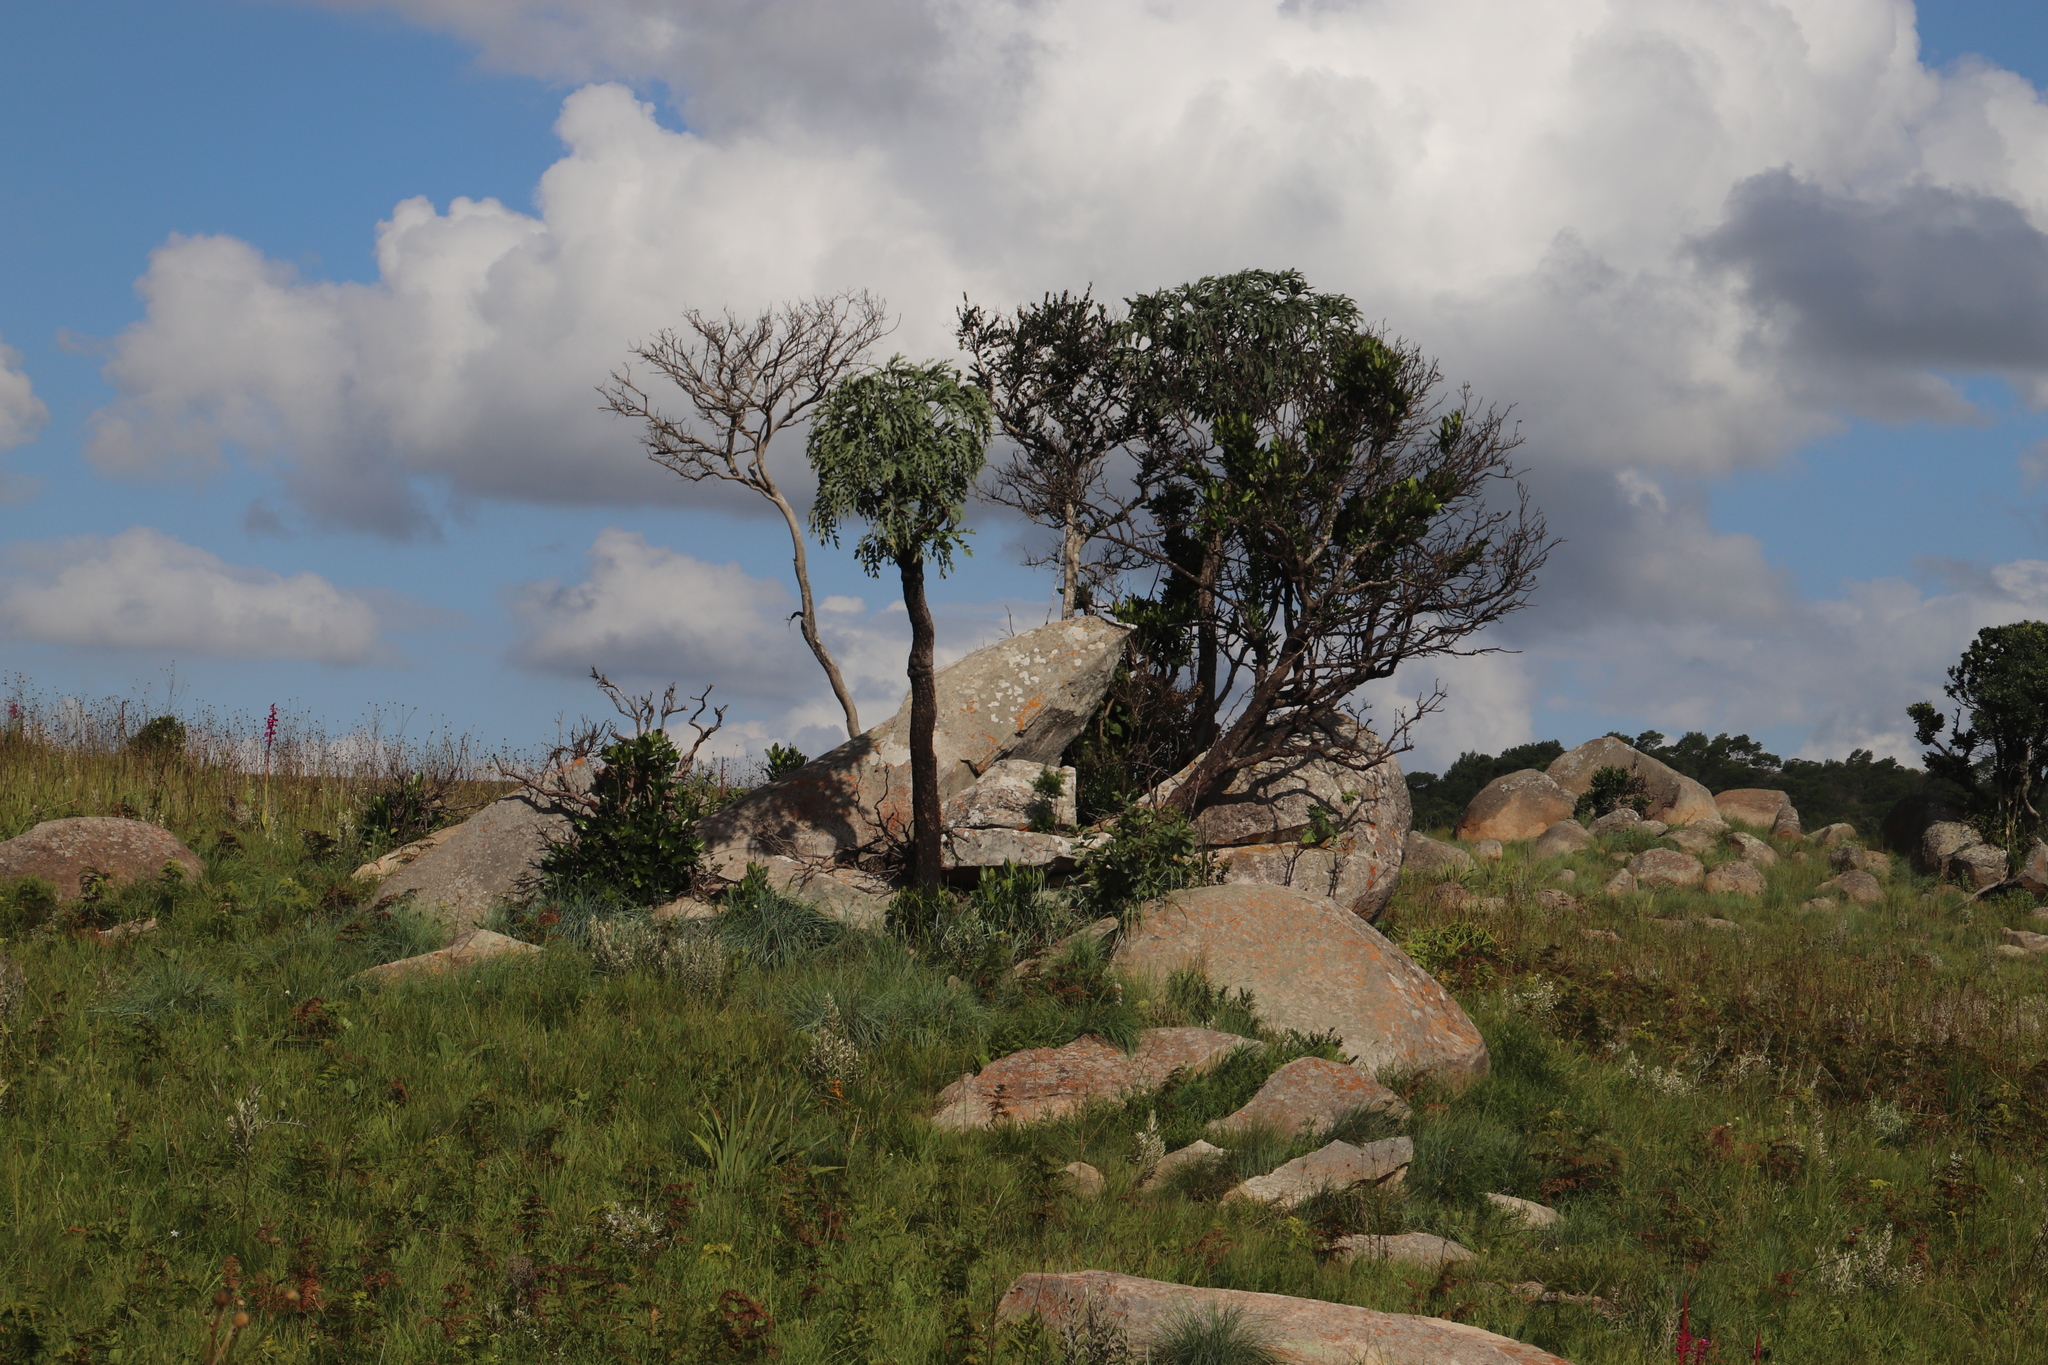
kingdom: Plantae
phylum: Tracheophyta
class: Magnoliopsida
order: Apiales
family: Araliaceae
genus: Cussonia
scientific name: Cussonia paniculata
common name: Cabbagetree
